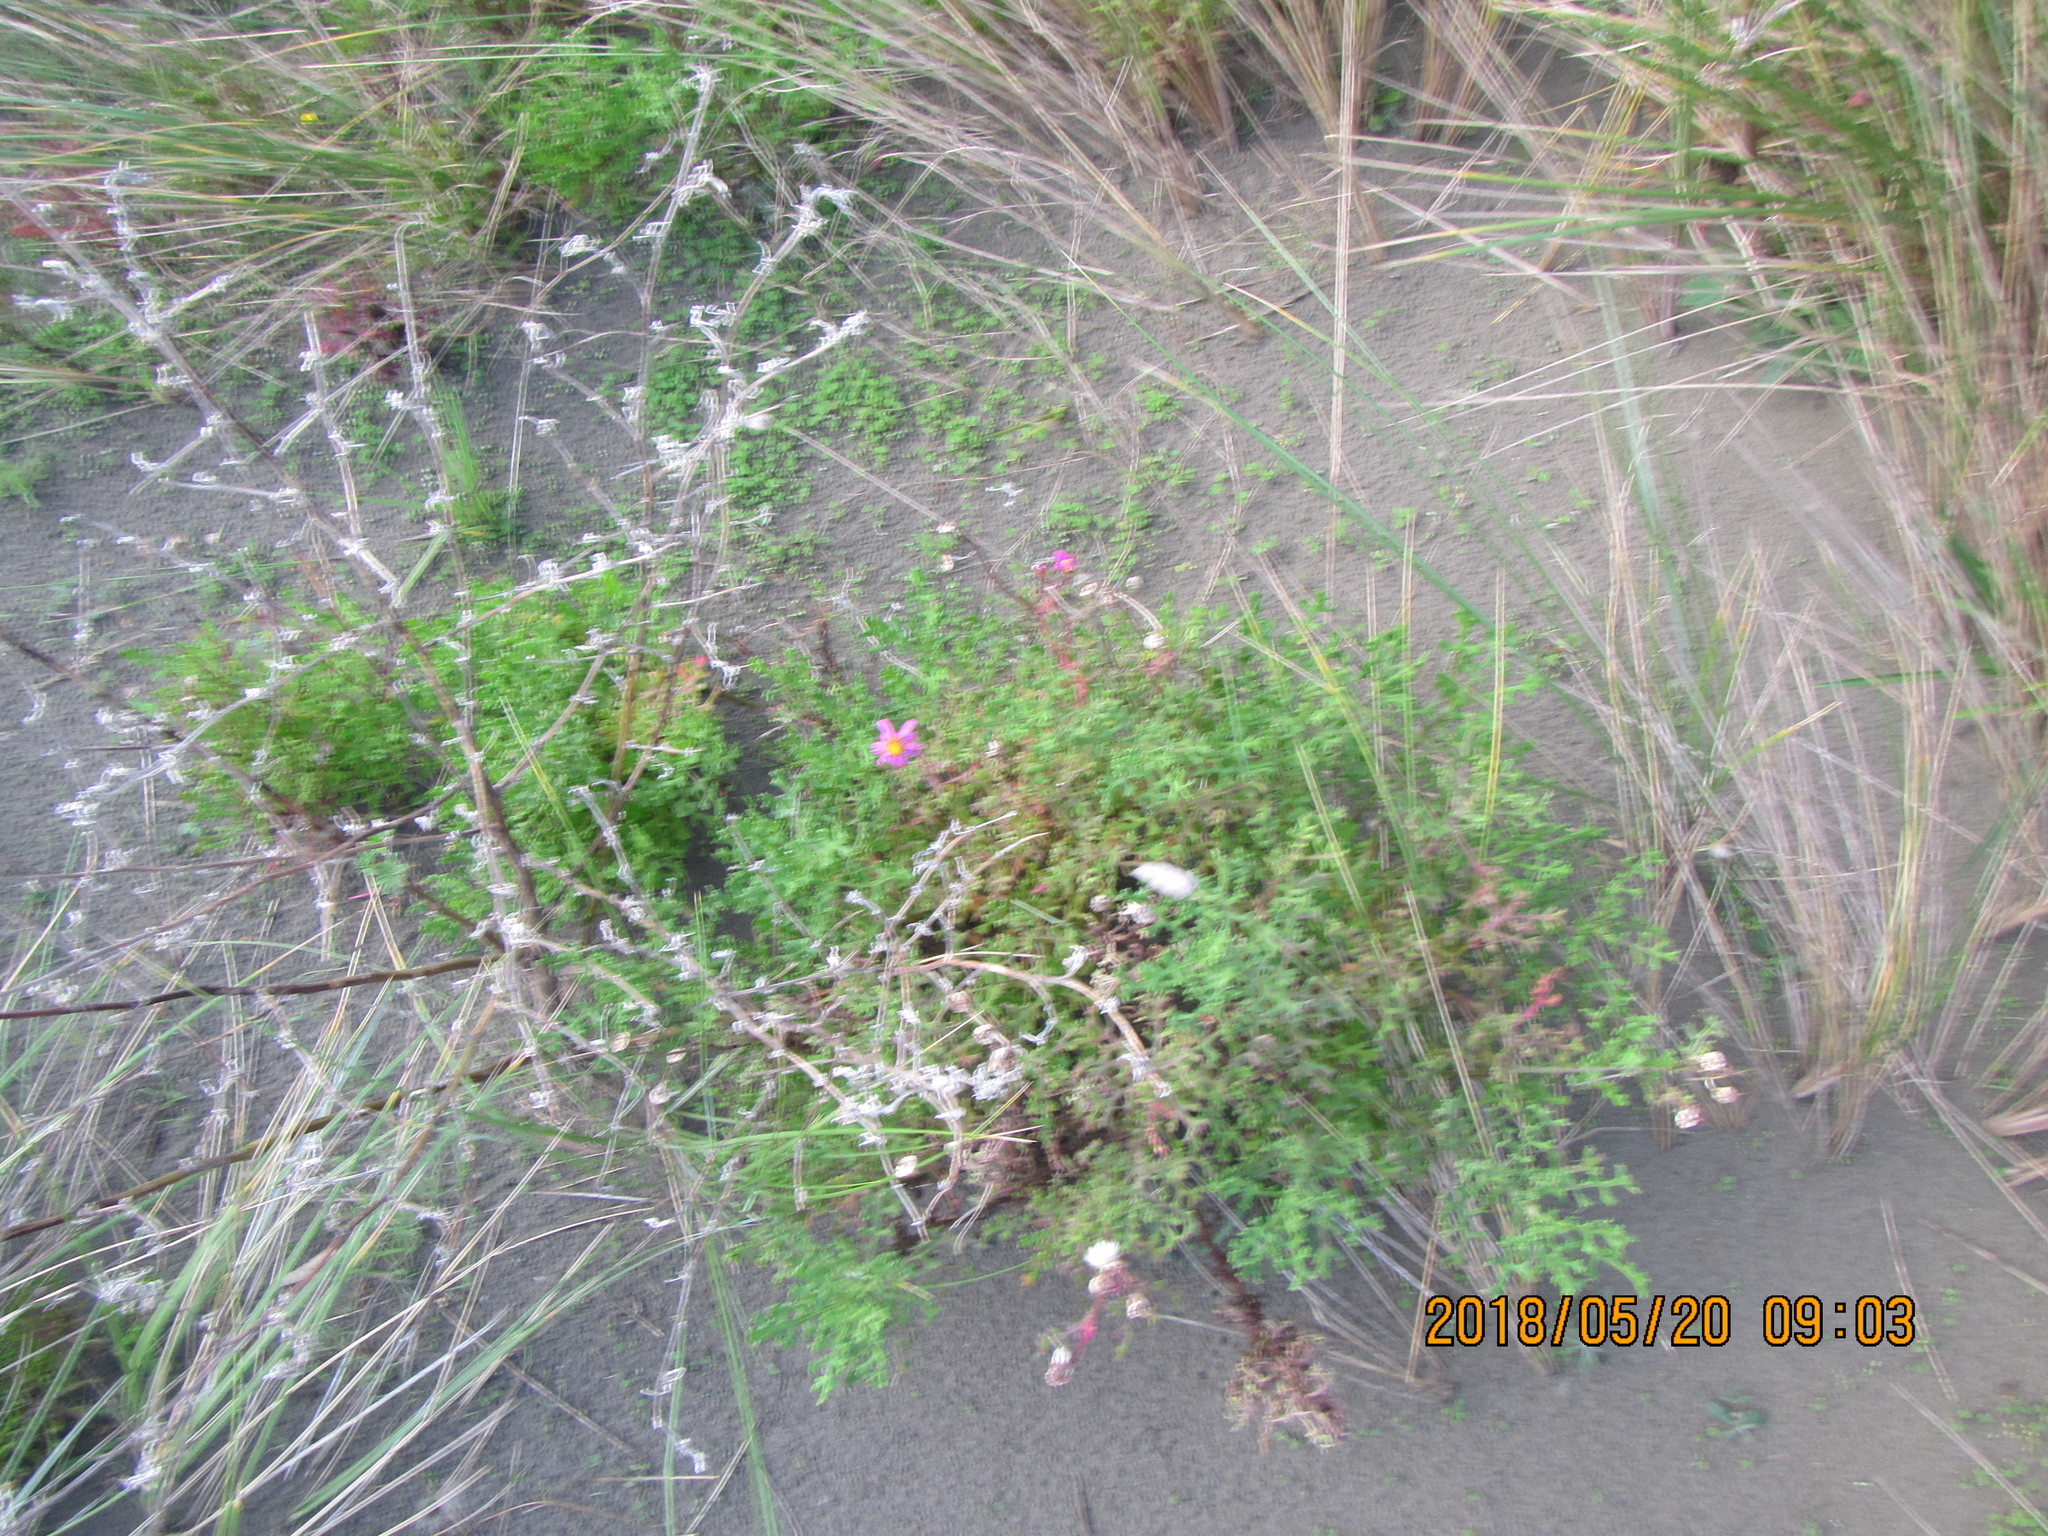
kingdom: Plantae
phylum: Tracheophyta
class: Magnoliopsida
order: Asterales
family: Asteraceae
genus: Senecio
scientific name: Senecio elegans
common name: Purple groundsel
